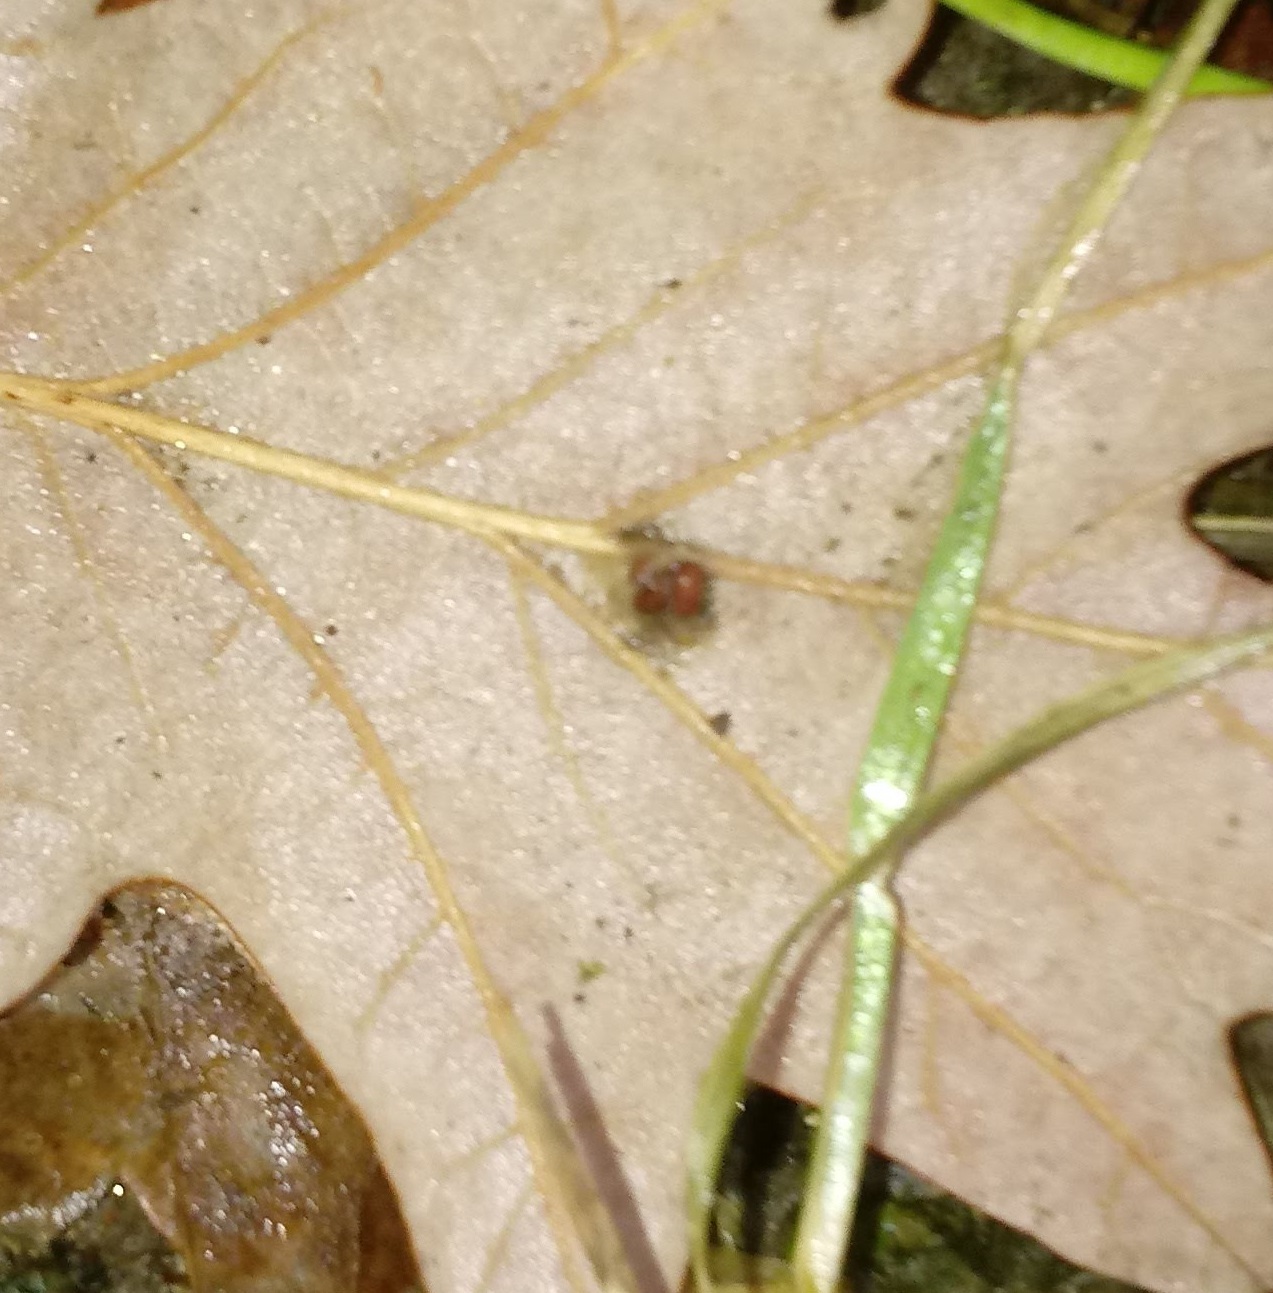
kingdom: Animalia
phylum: Arthropoda
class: Insecta
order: Hymenoptera
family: Cynipidae
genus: Andricus
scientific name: Andricus Druon ignotum
